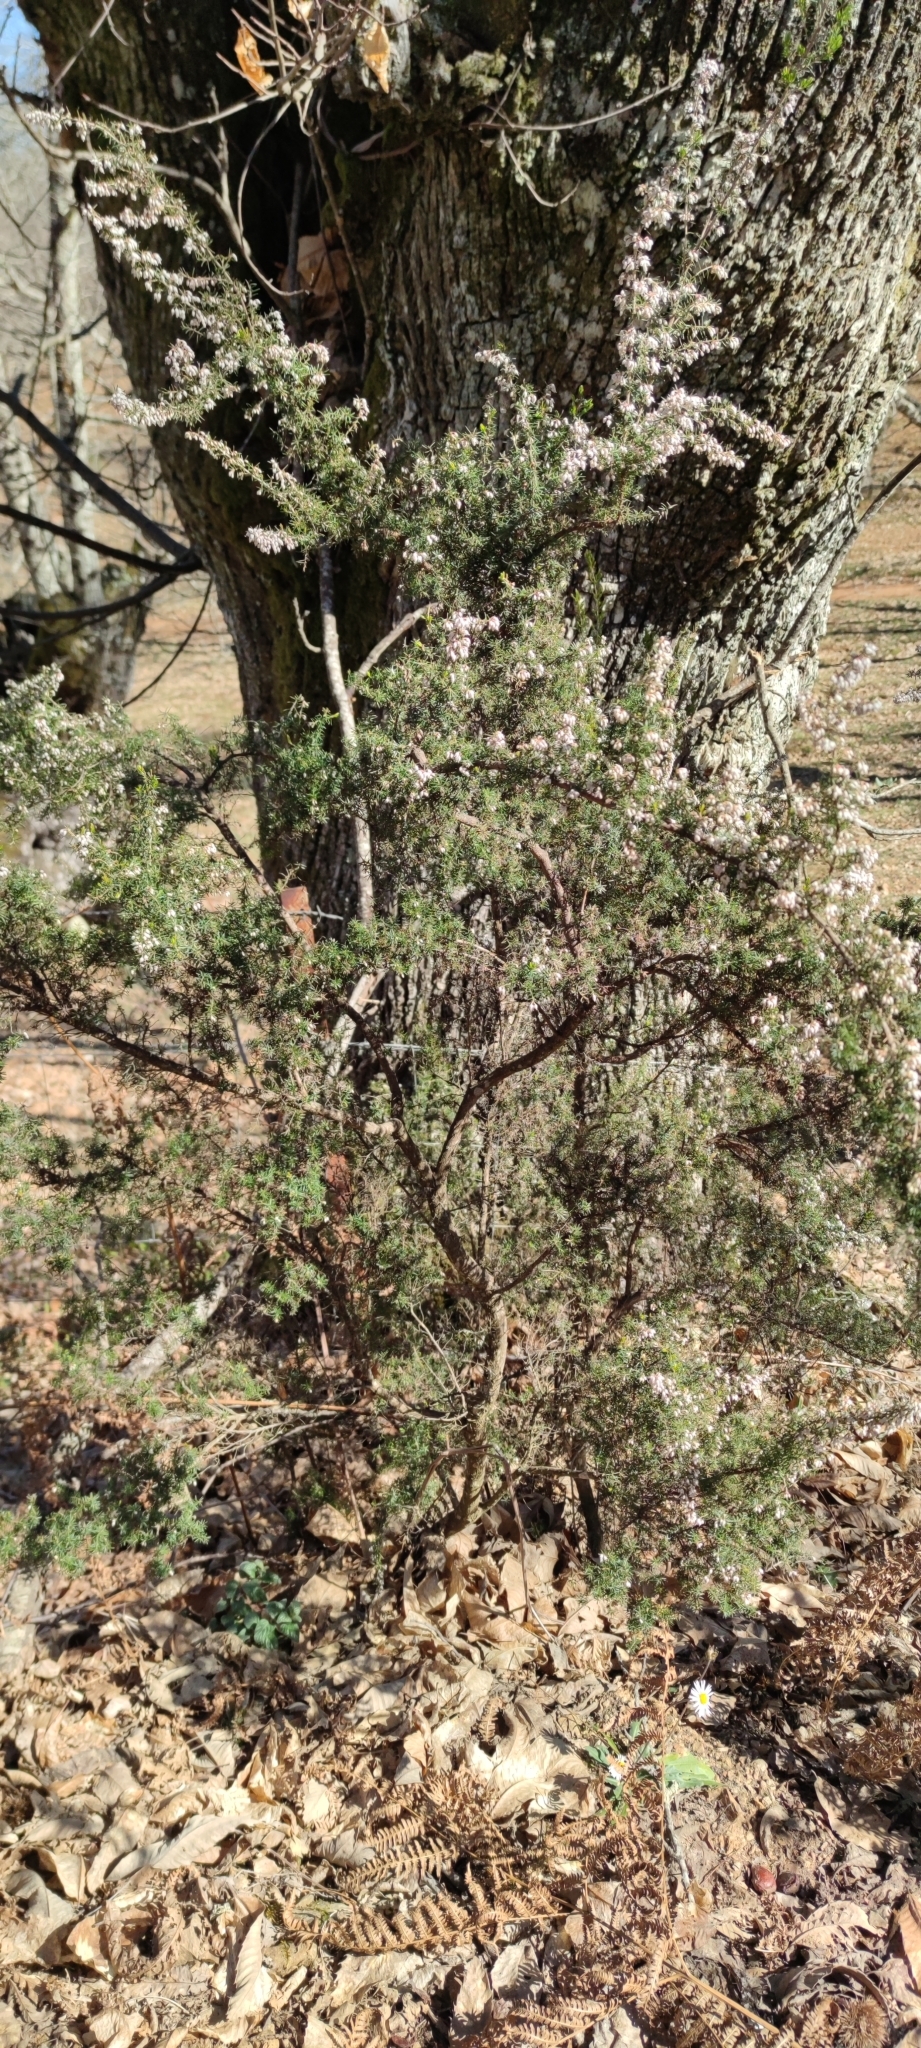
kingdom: Plantae
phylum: Tracheophyta
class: Magnoliopsida
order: Ericales
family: Ericaceae
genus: Erica
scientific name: Erica arborea
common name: Tree heath
